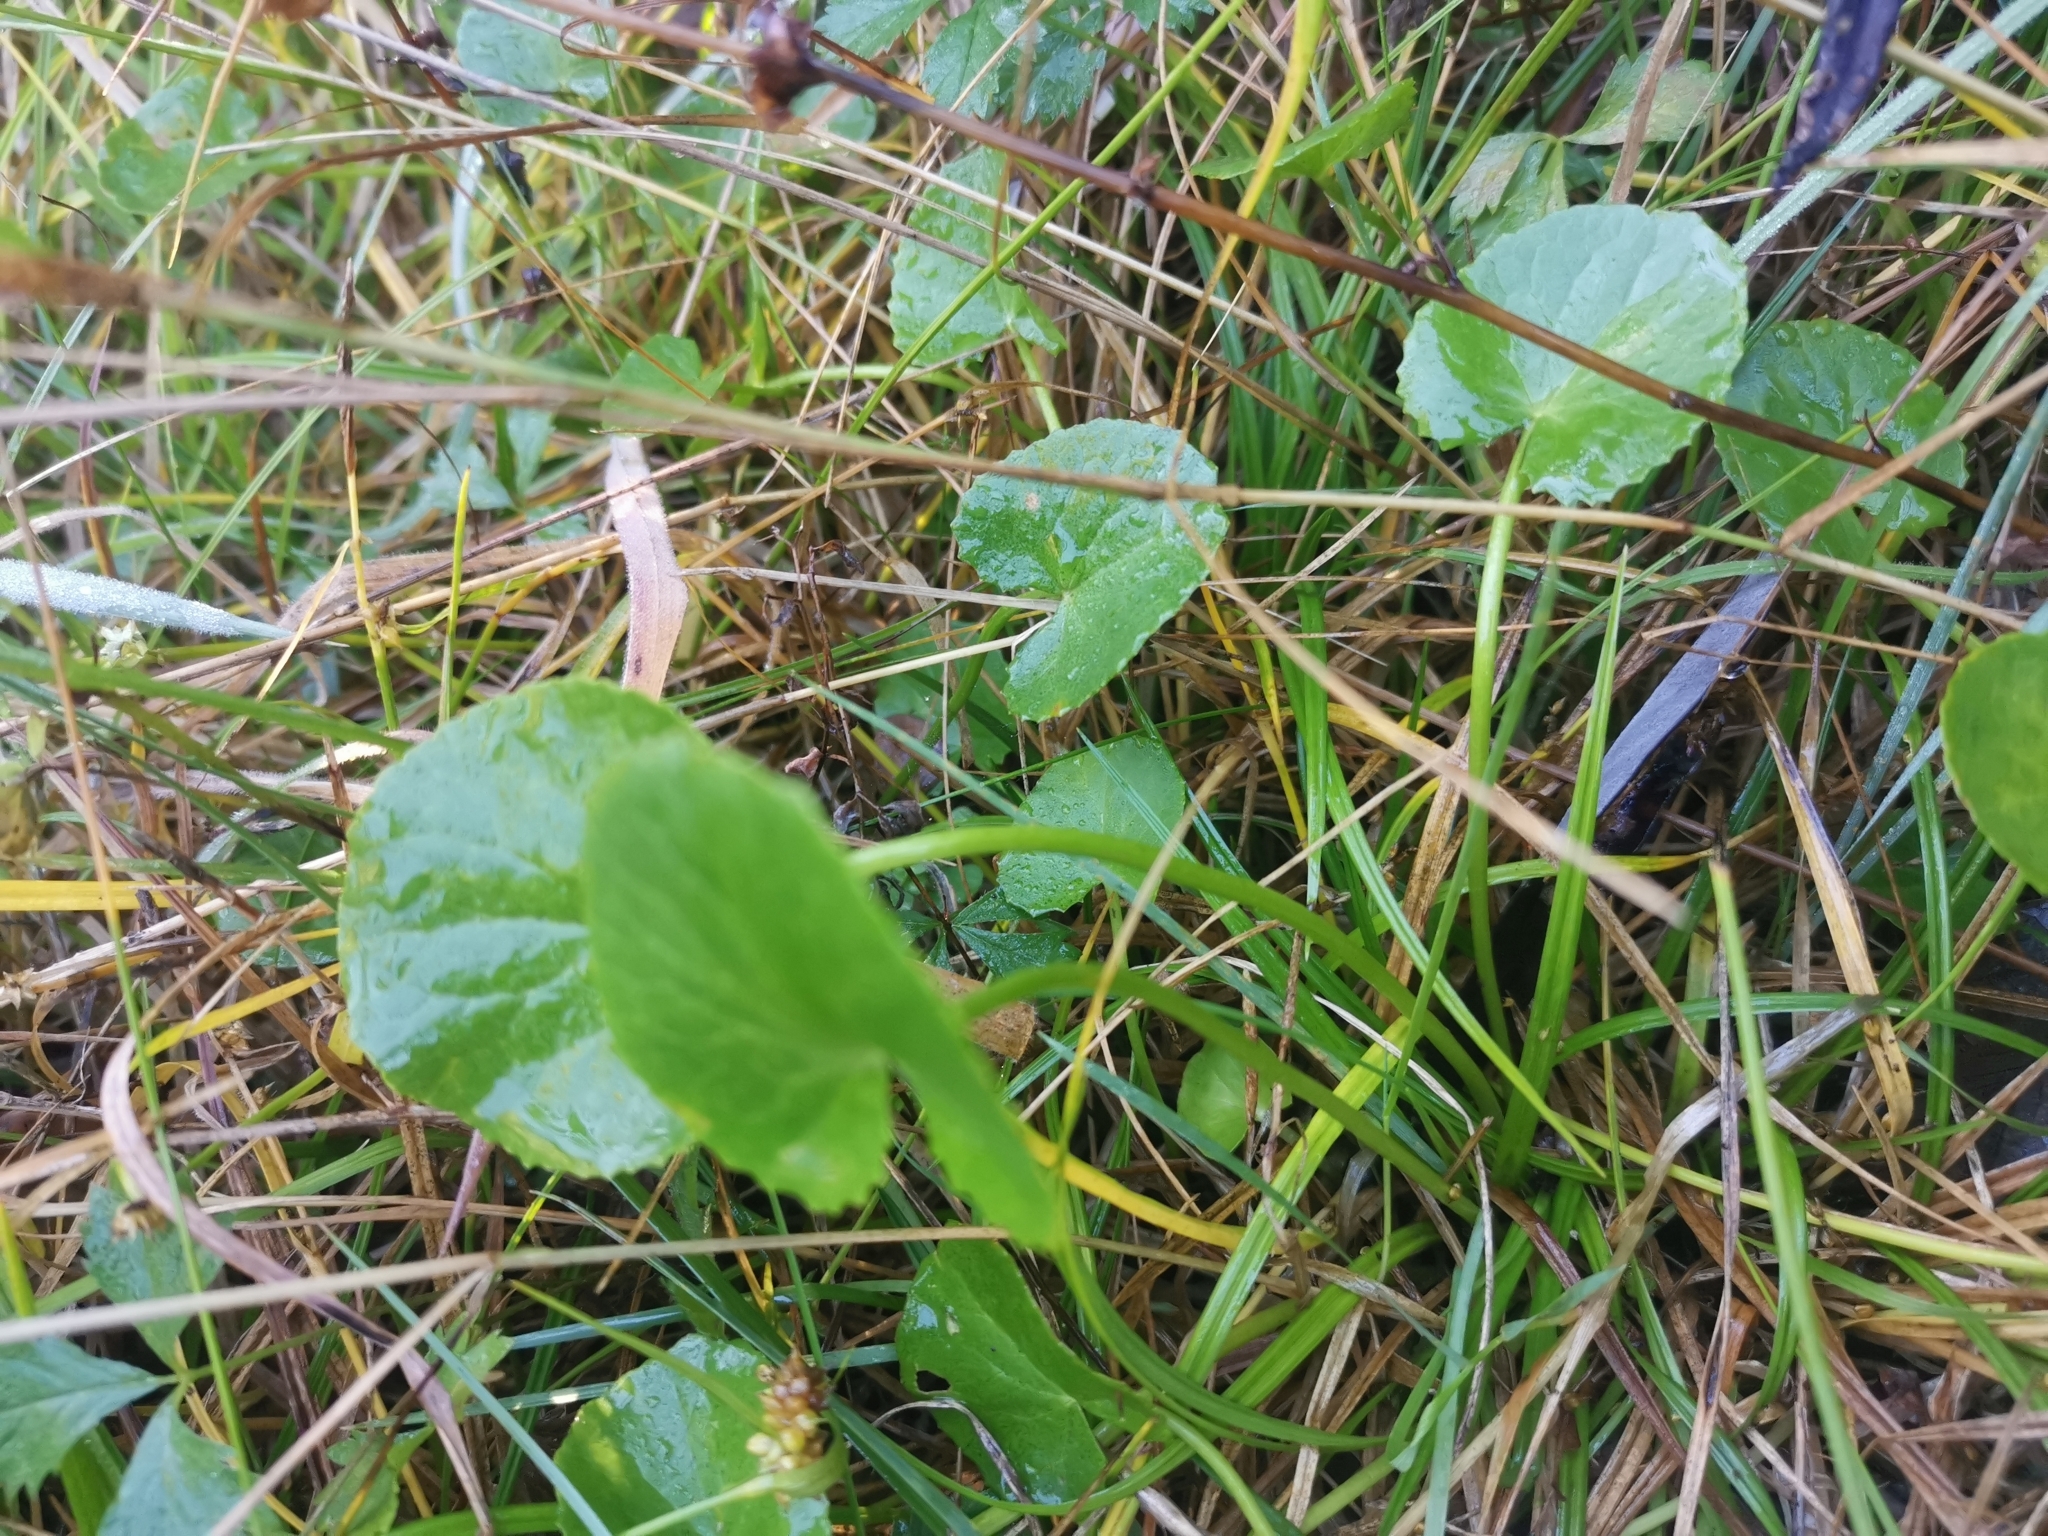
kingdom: Plantae
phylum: Tracheophyta
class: Magnoliopsida
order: Apiales
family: Apiaceae
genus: Centella
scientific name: Centella asiatica
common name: Spadeleaf
